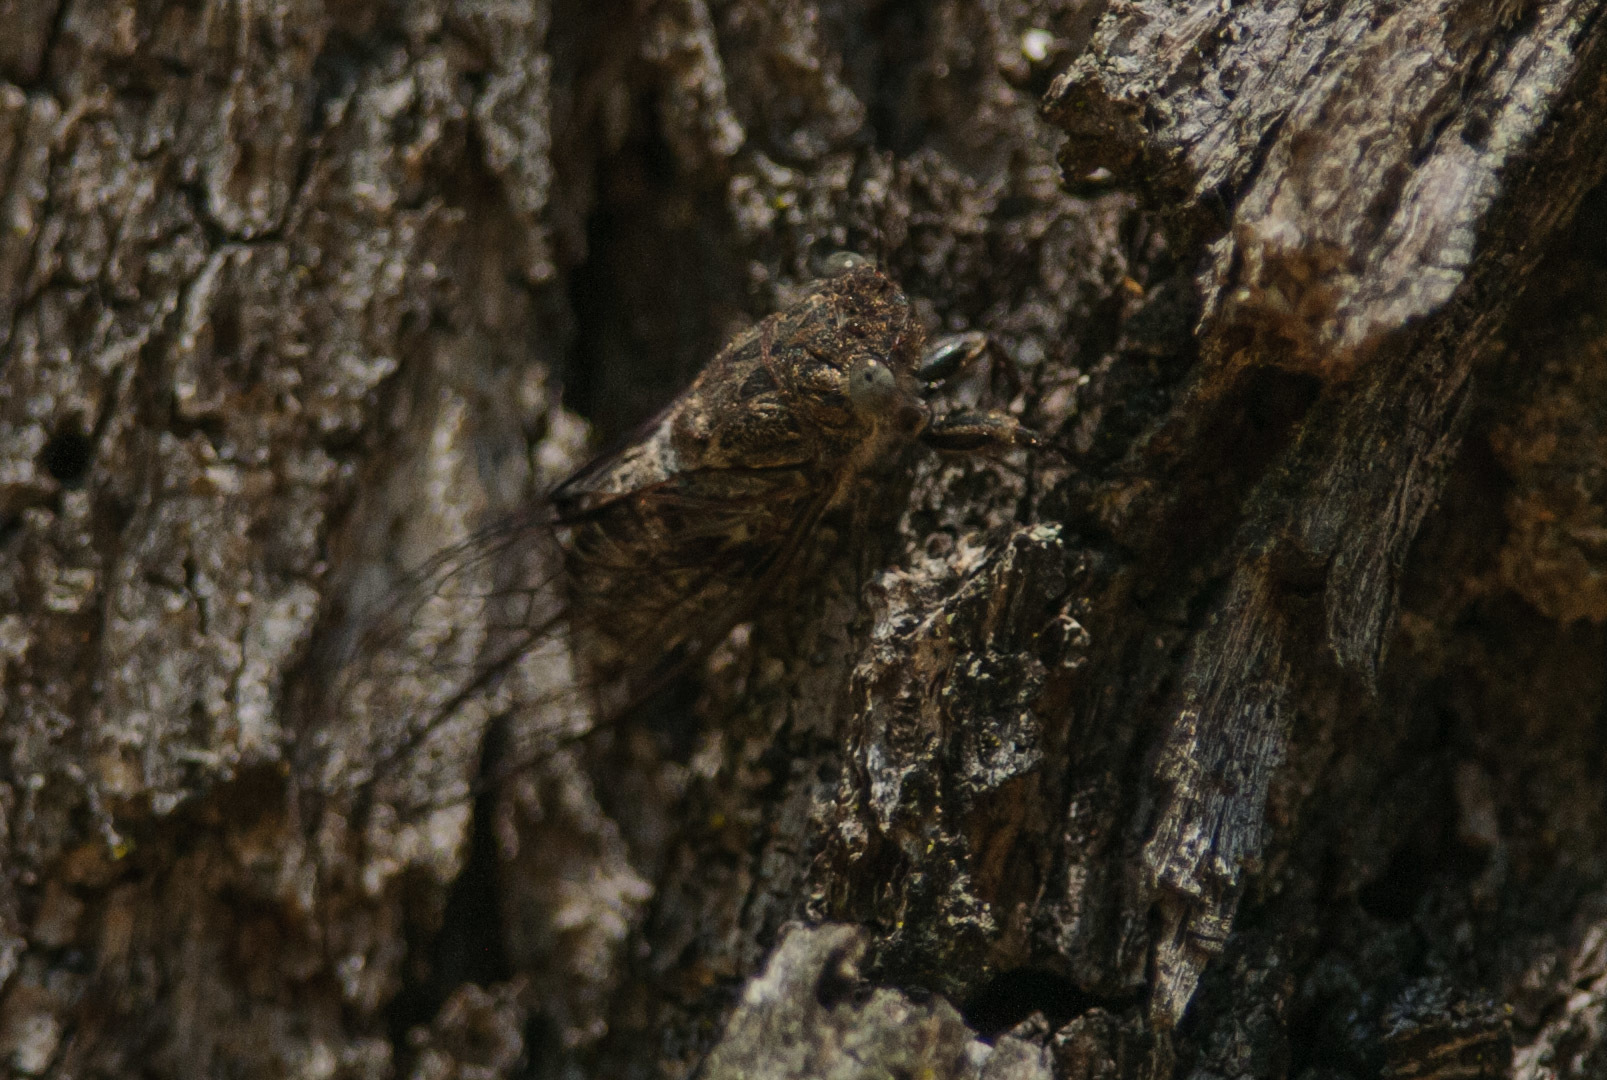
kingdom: Animalia
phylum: Arthropoda
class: Insecta
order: Hemiptera
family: Cicadidae
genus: Atrapsalta
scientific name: Atrapsalta corticina
